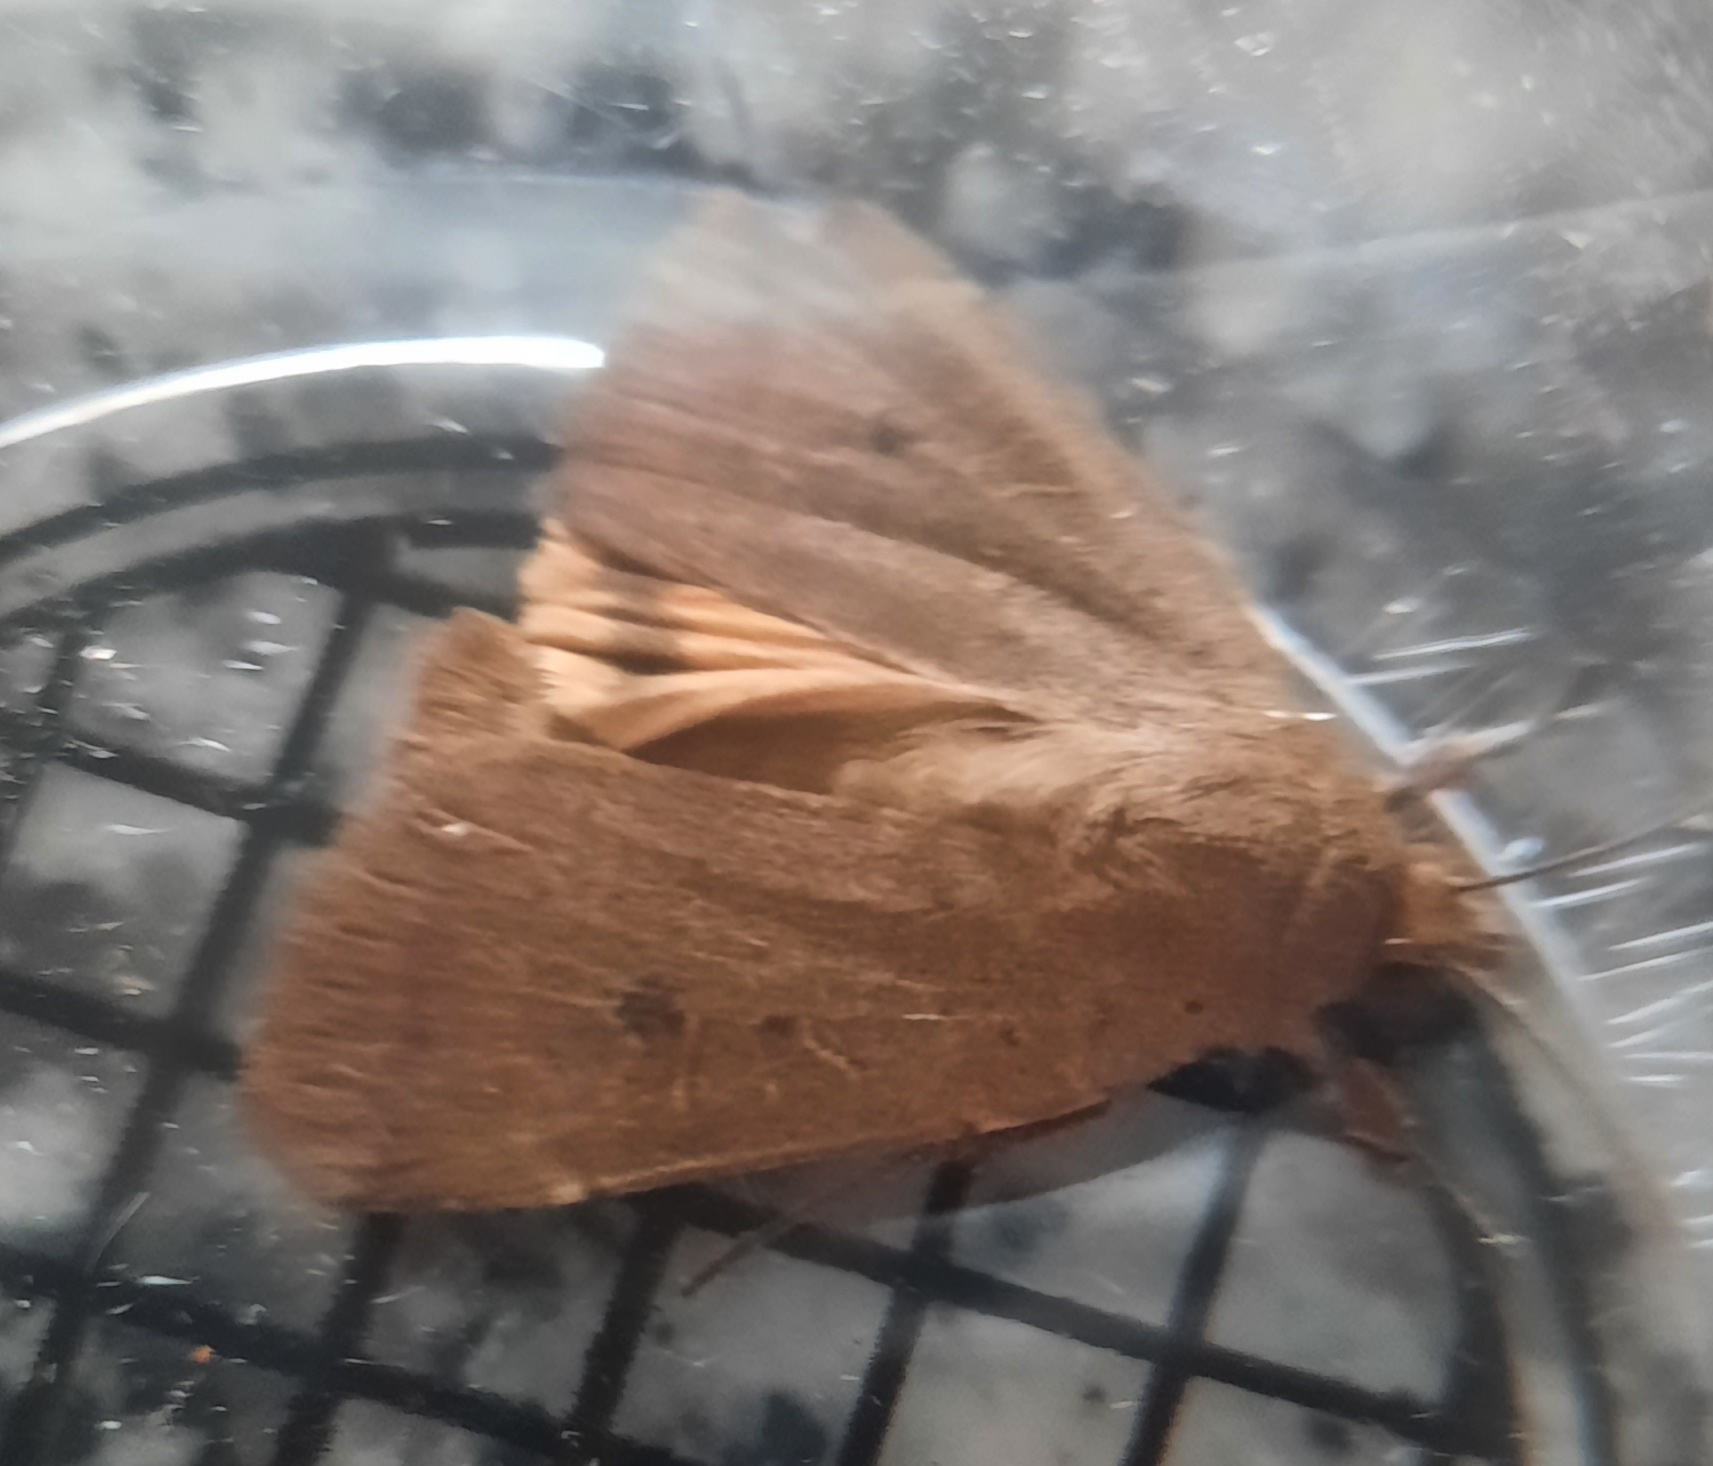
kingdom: Animalia
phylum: Arthropoda
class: Insecta
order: Lepidoptera
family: Noctuidae
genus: Noctua
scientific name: Noctua comes
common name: Lesser yellow underwing
